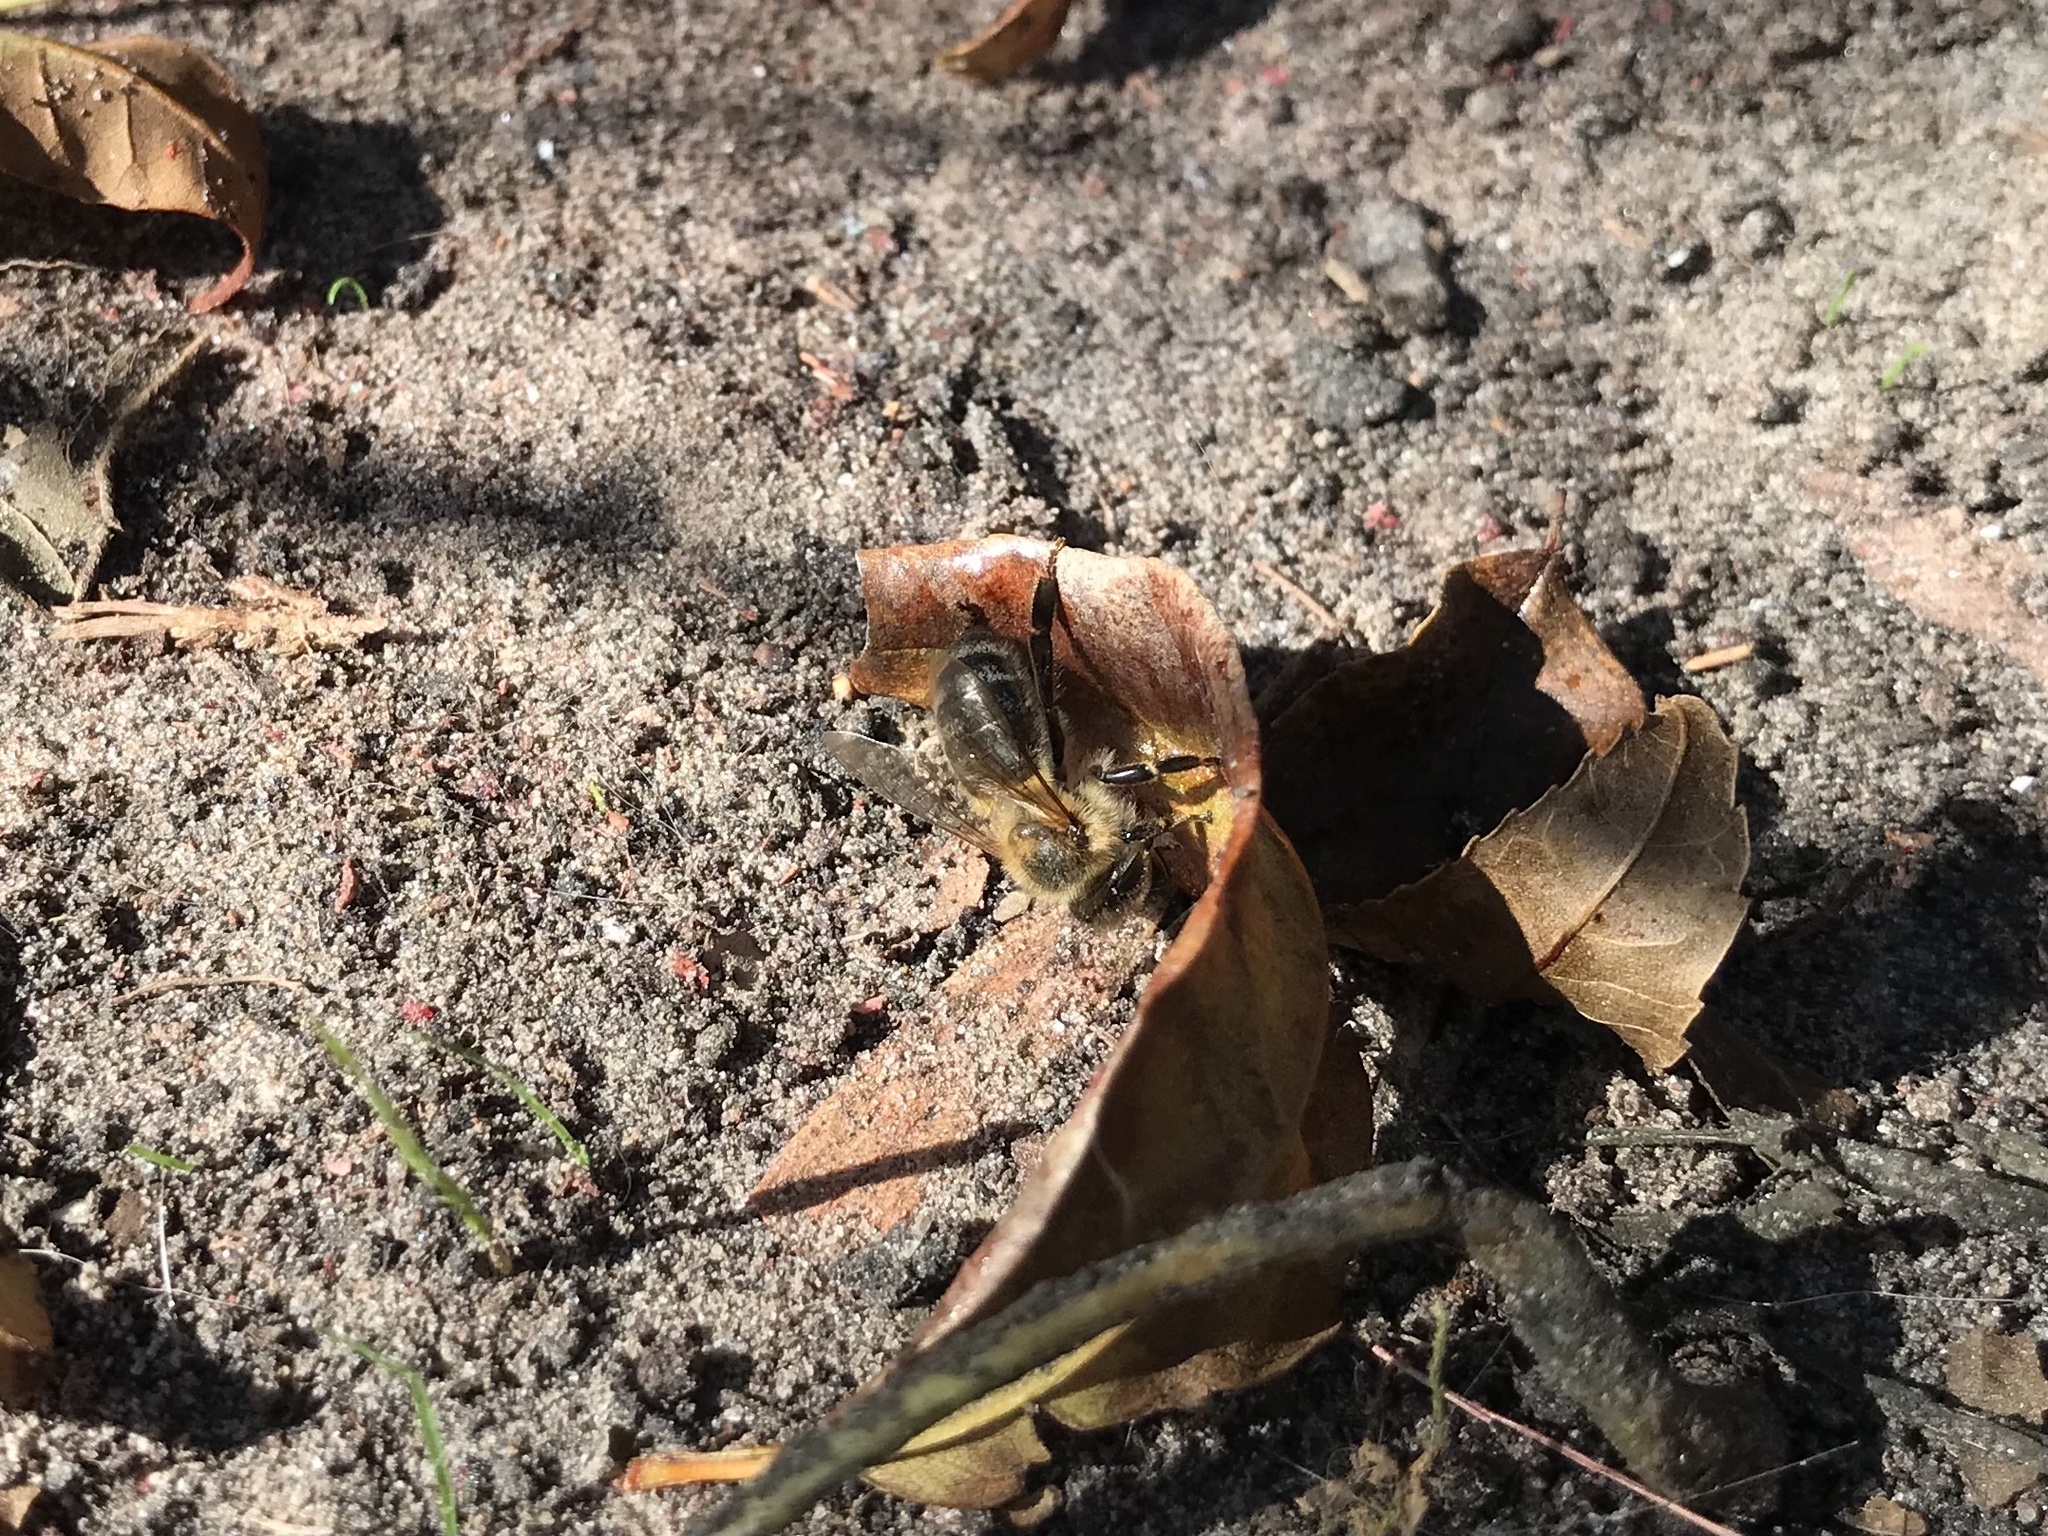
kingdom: Animalia
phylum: Arthropoda
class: Insecta
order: Hymenoptera
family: Apidae
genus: Apis
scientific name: Apis mellifera
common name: Honey bee
